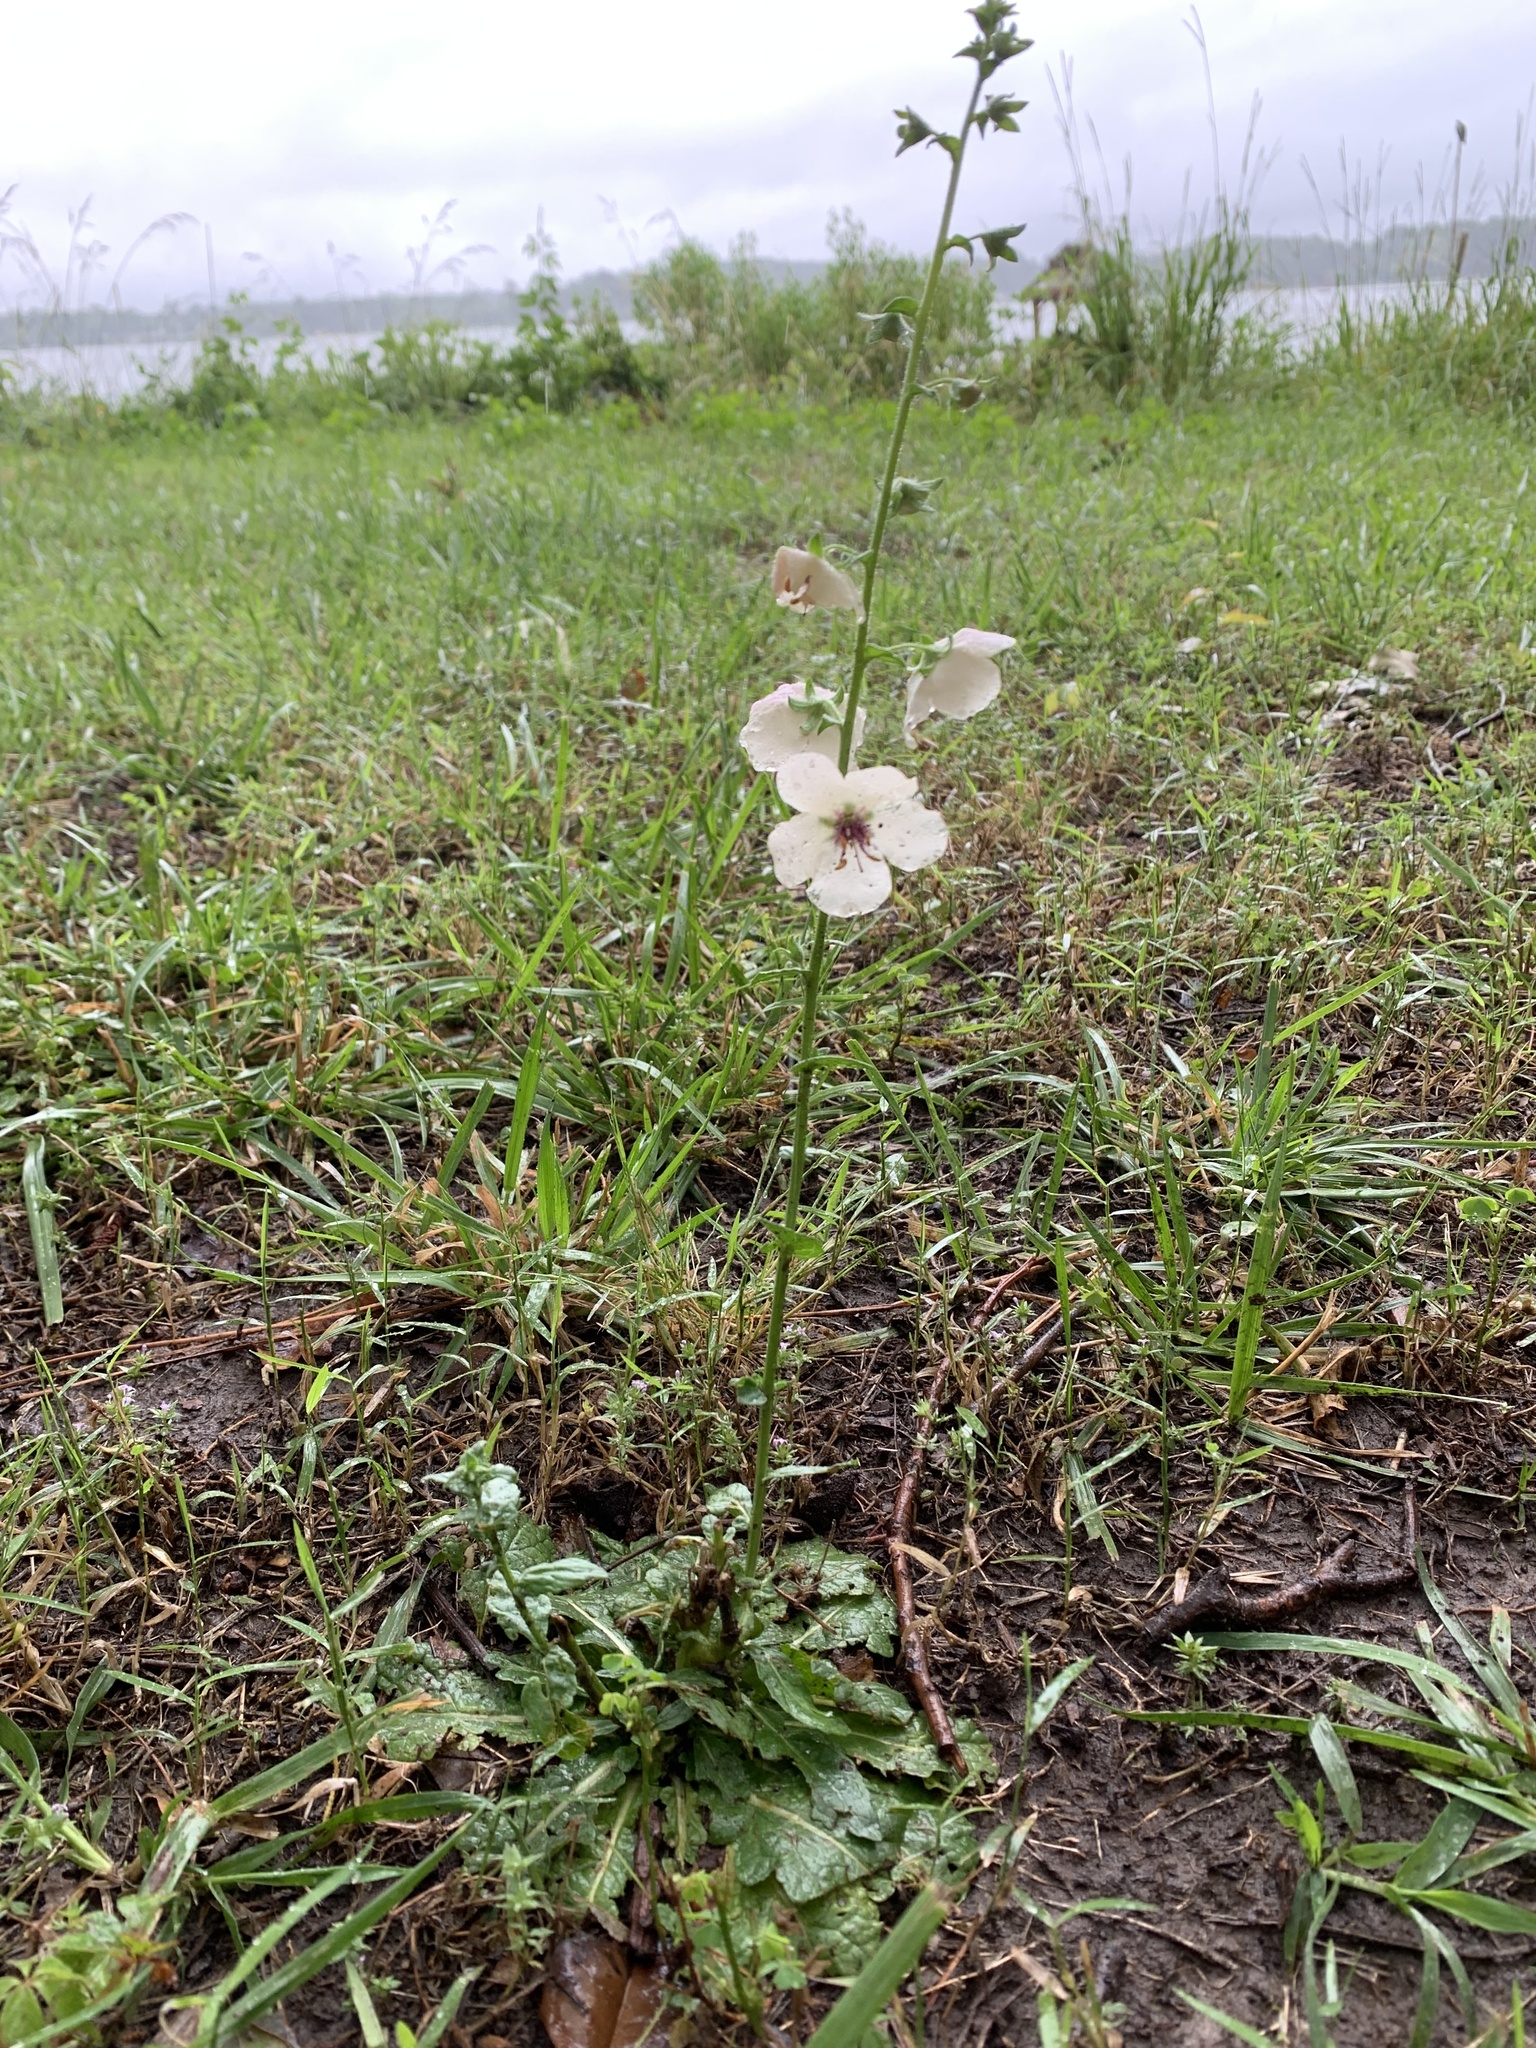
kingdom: Plantae
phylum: Tracheophyta
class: Magnoliopsida
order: Lamiales
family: Scrophulariaceae
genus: Verbascum
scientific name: Verbascum blattaria
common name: Moth mullein
